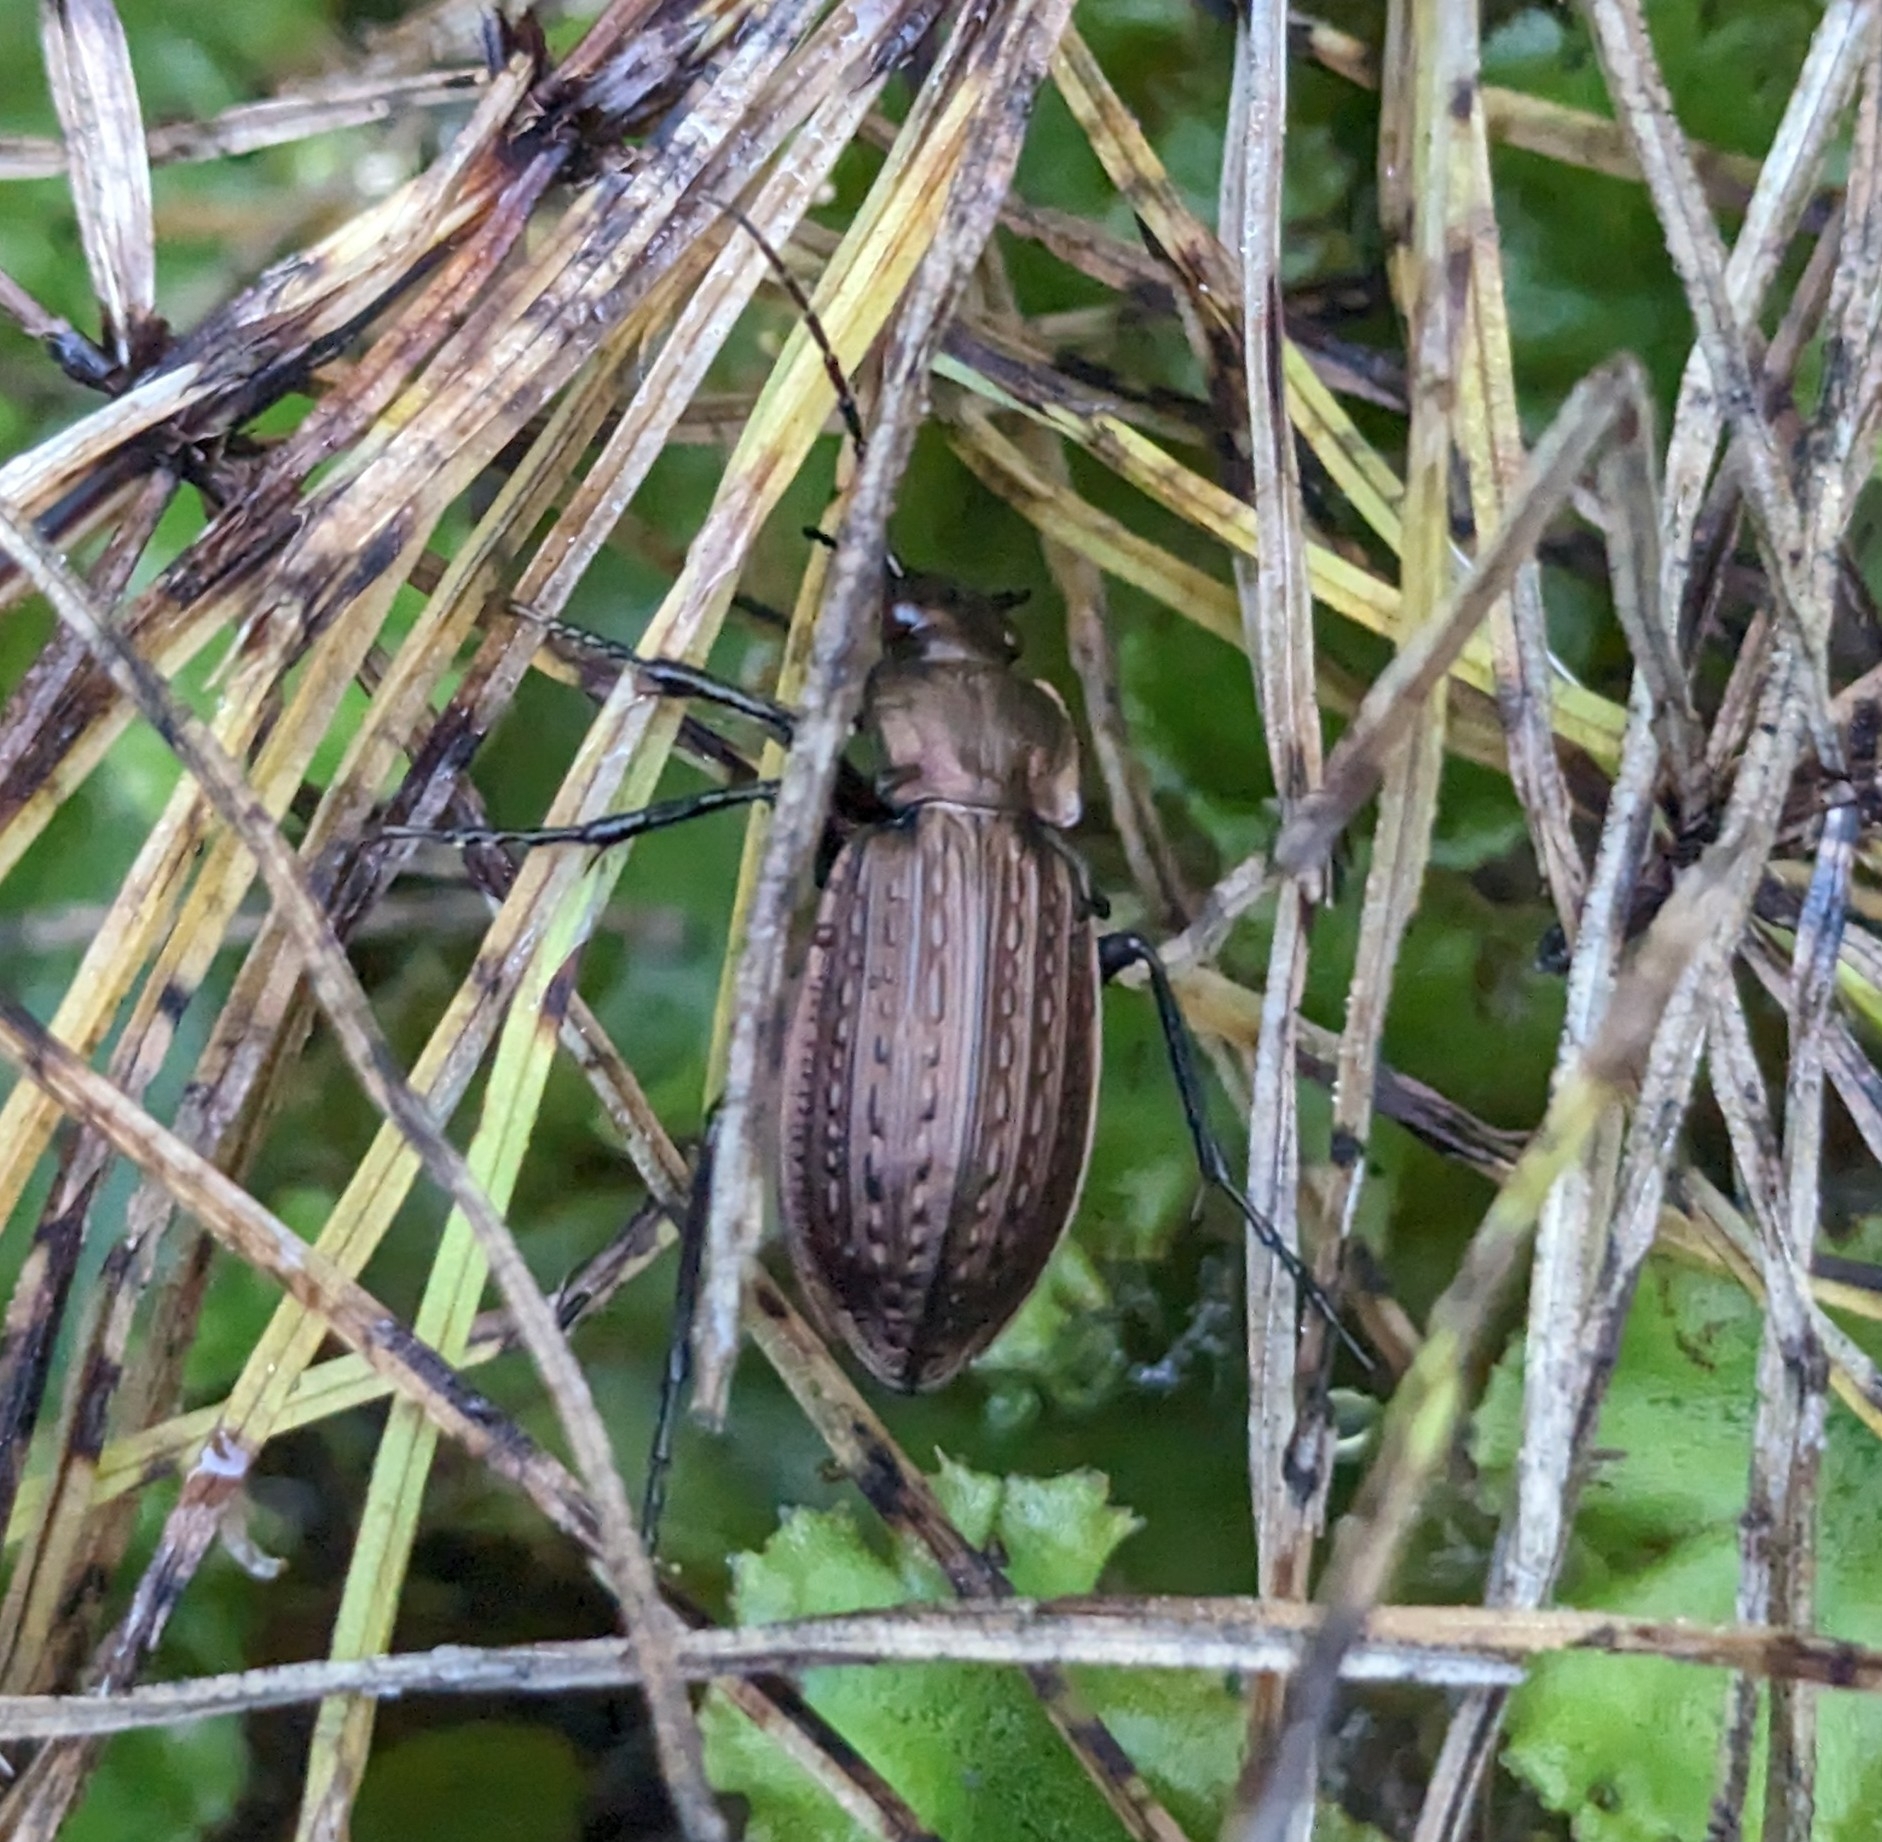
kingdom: Animalia
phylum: Arthropoda
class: Insecta
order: Coleoptera
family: Carabidae
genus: Carabus
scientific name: Carabus granulatus
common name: Granulate ground beetle
